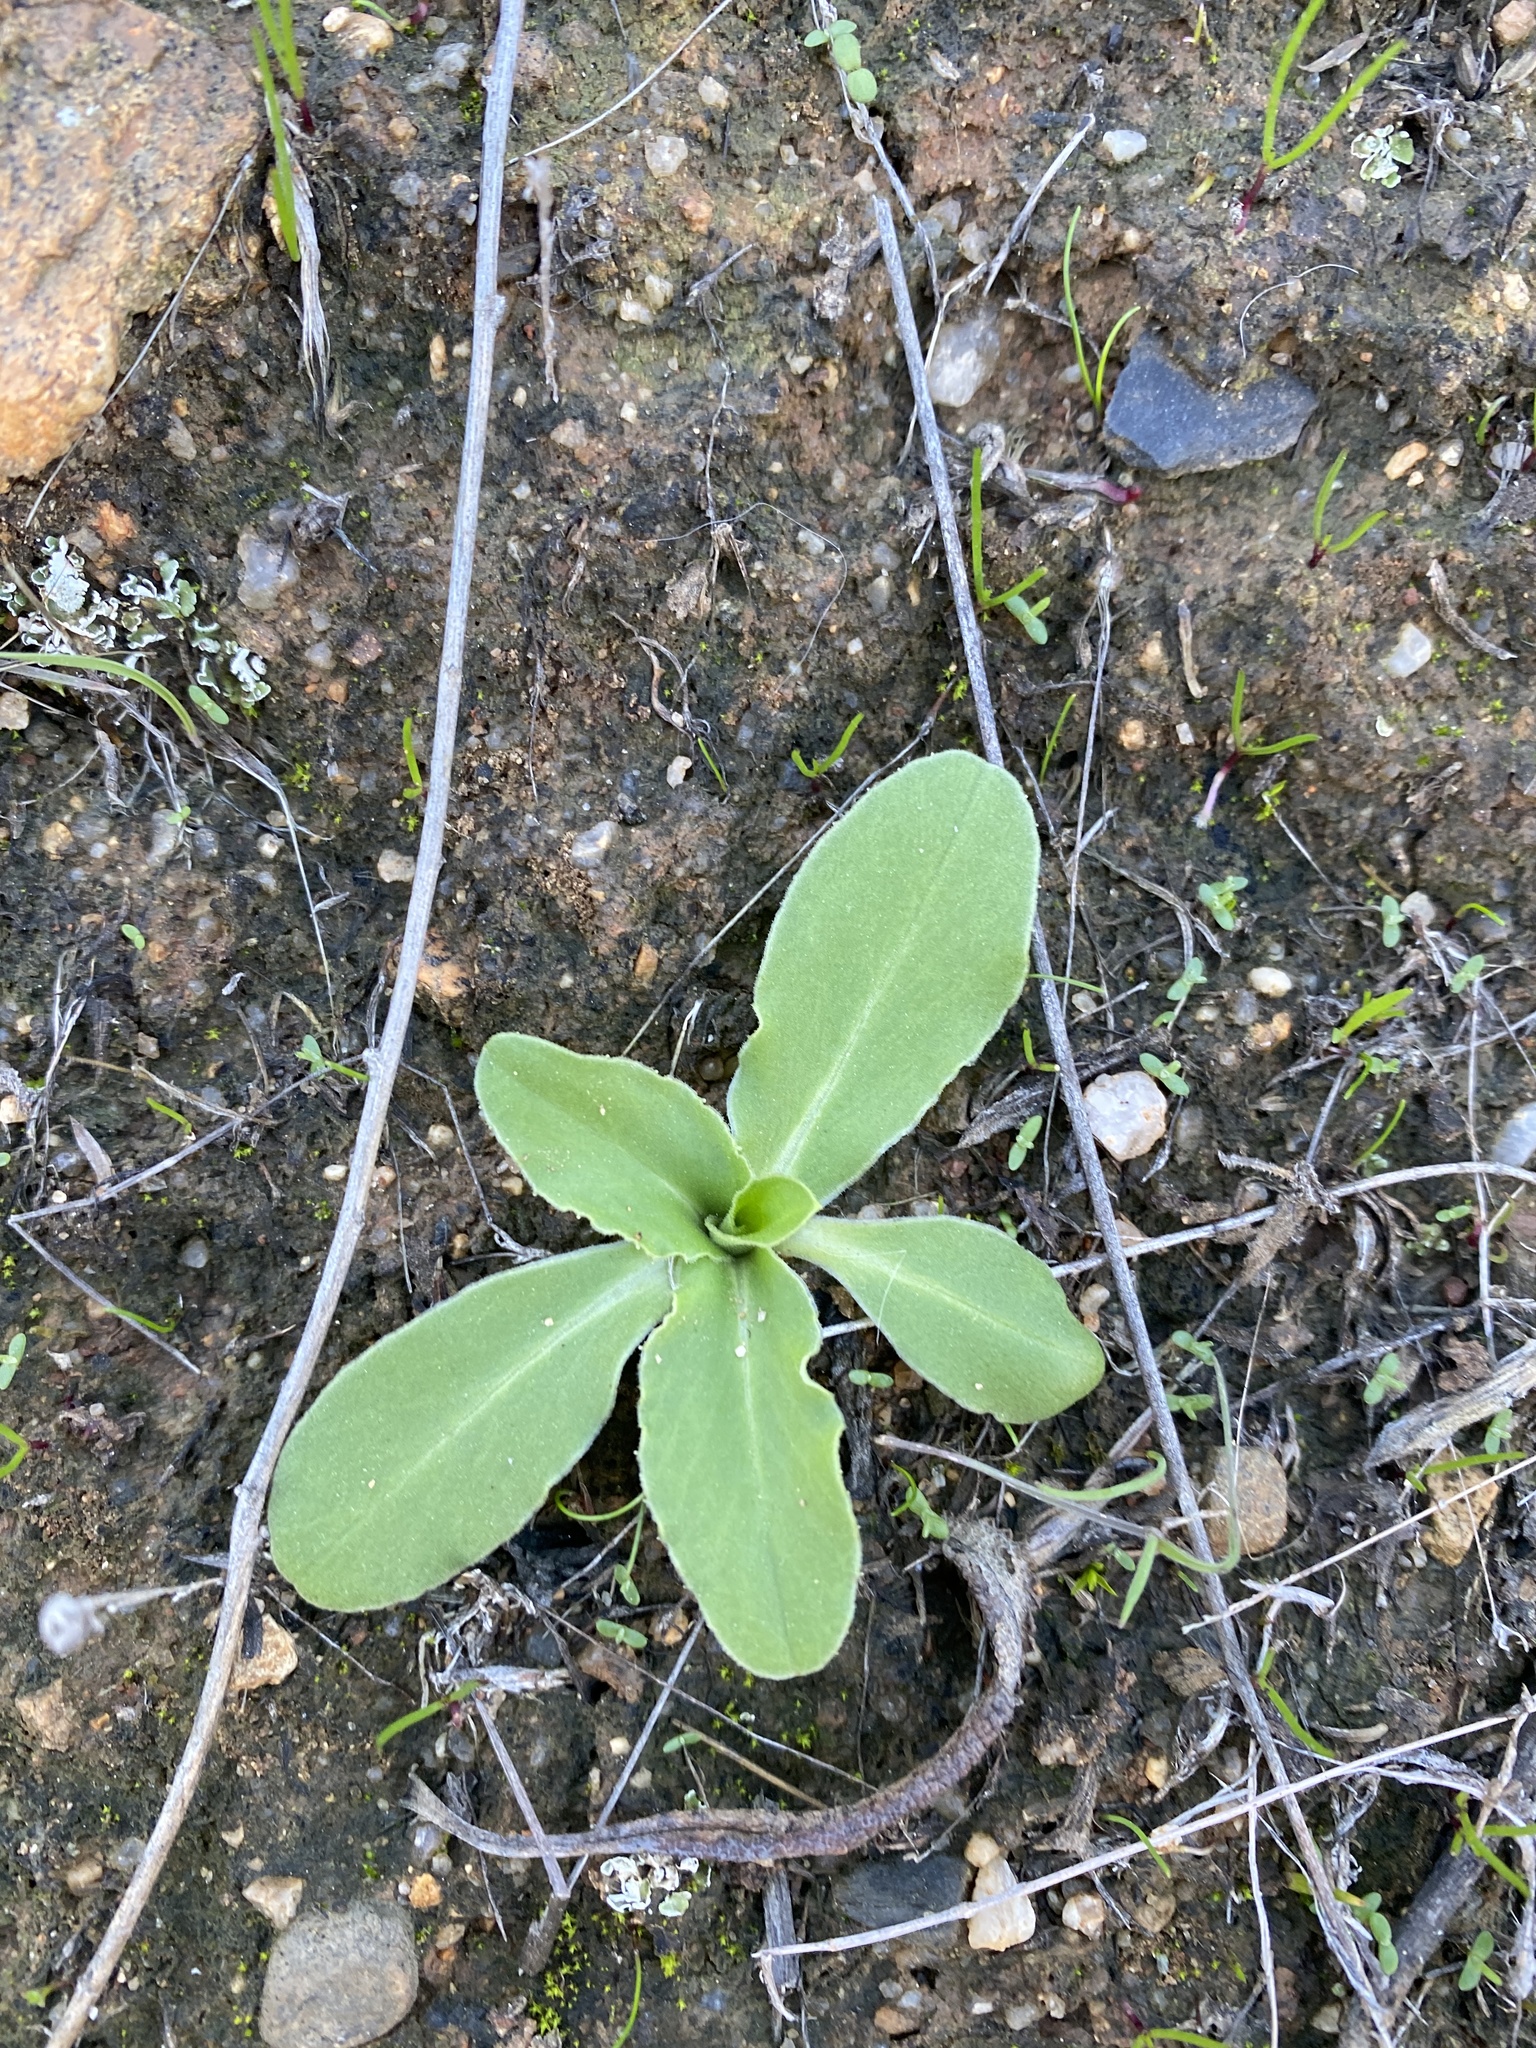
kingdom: Plantae
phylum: Tracheophyta
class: Magnoliopsida
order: Ericales
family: Primulaceae
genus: Dodecatheon
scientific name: Dodecatheon clevelandii
